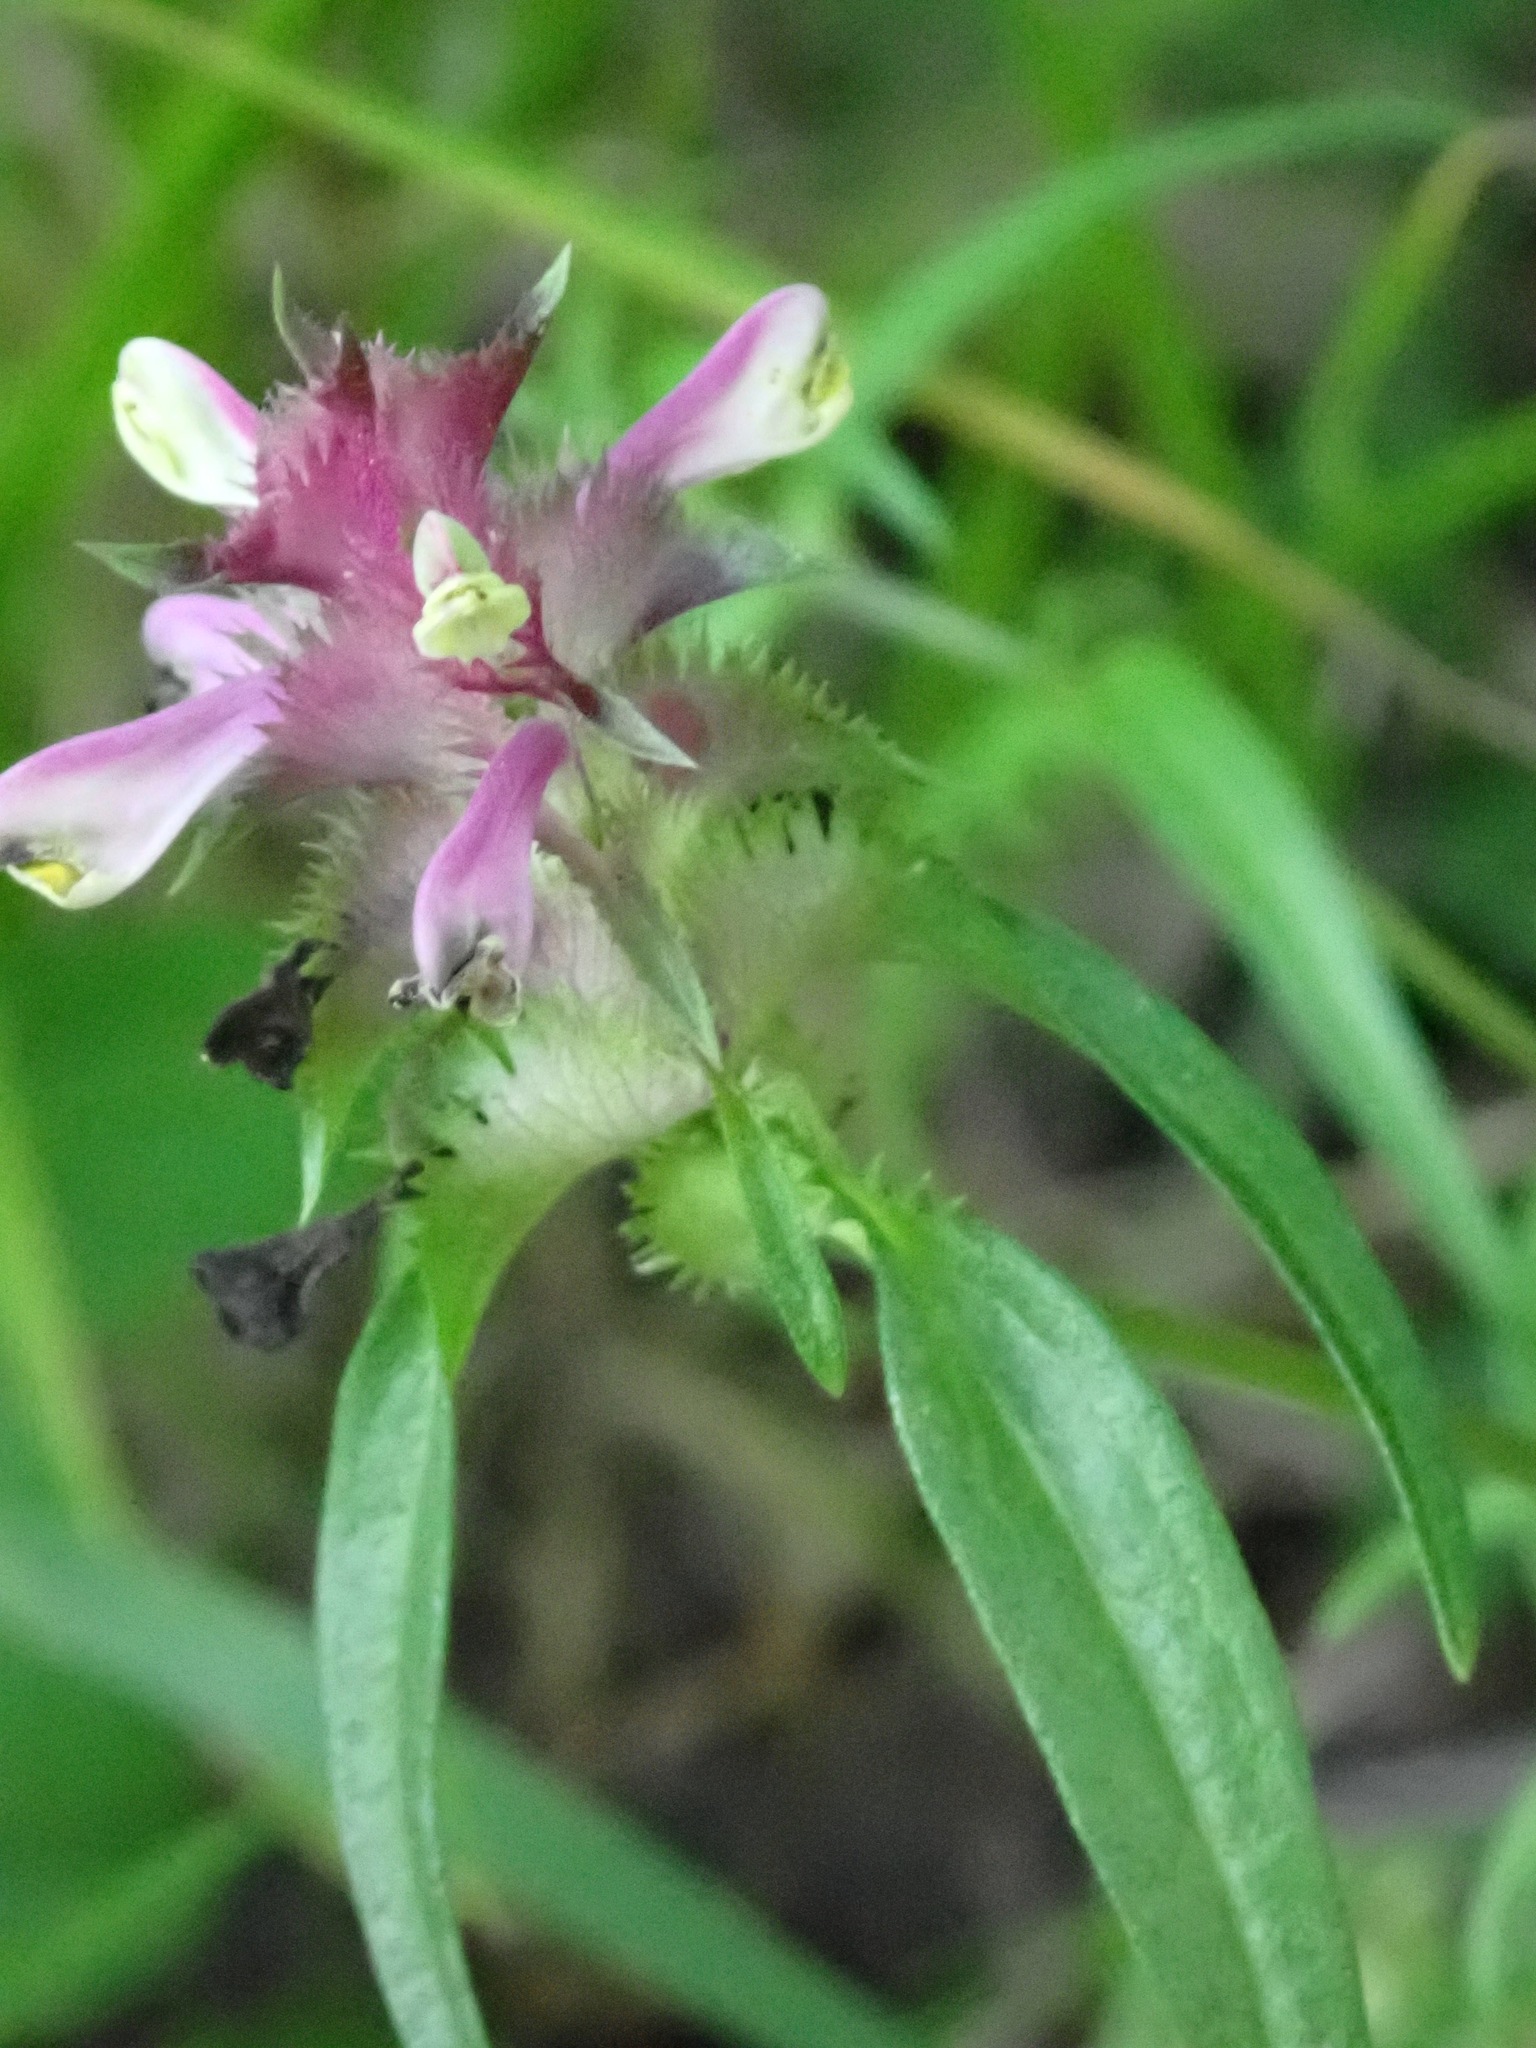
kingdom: Plantae
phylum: Tracheophyta
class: Magnoliopsida
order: Lamiales
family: Orobanchaceae
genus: Melampyrum
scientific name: Melampyrum cristatum
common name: Crested cow-wheat
